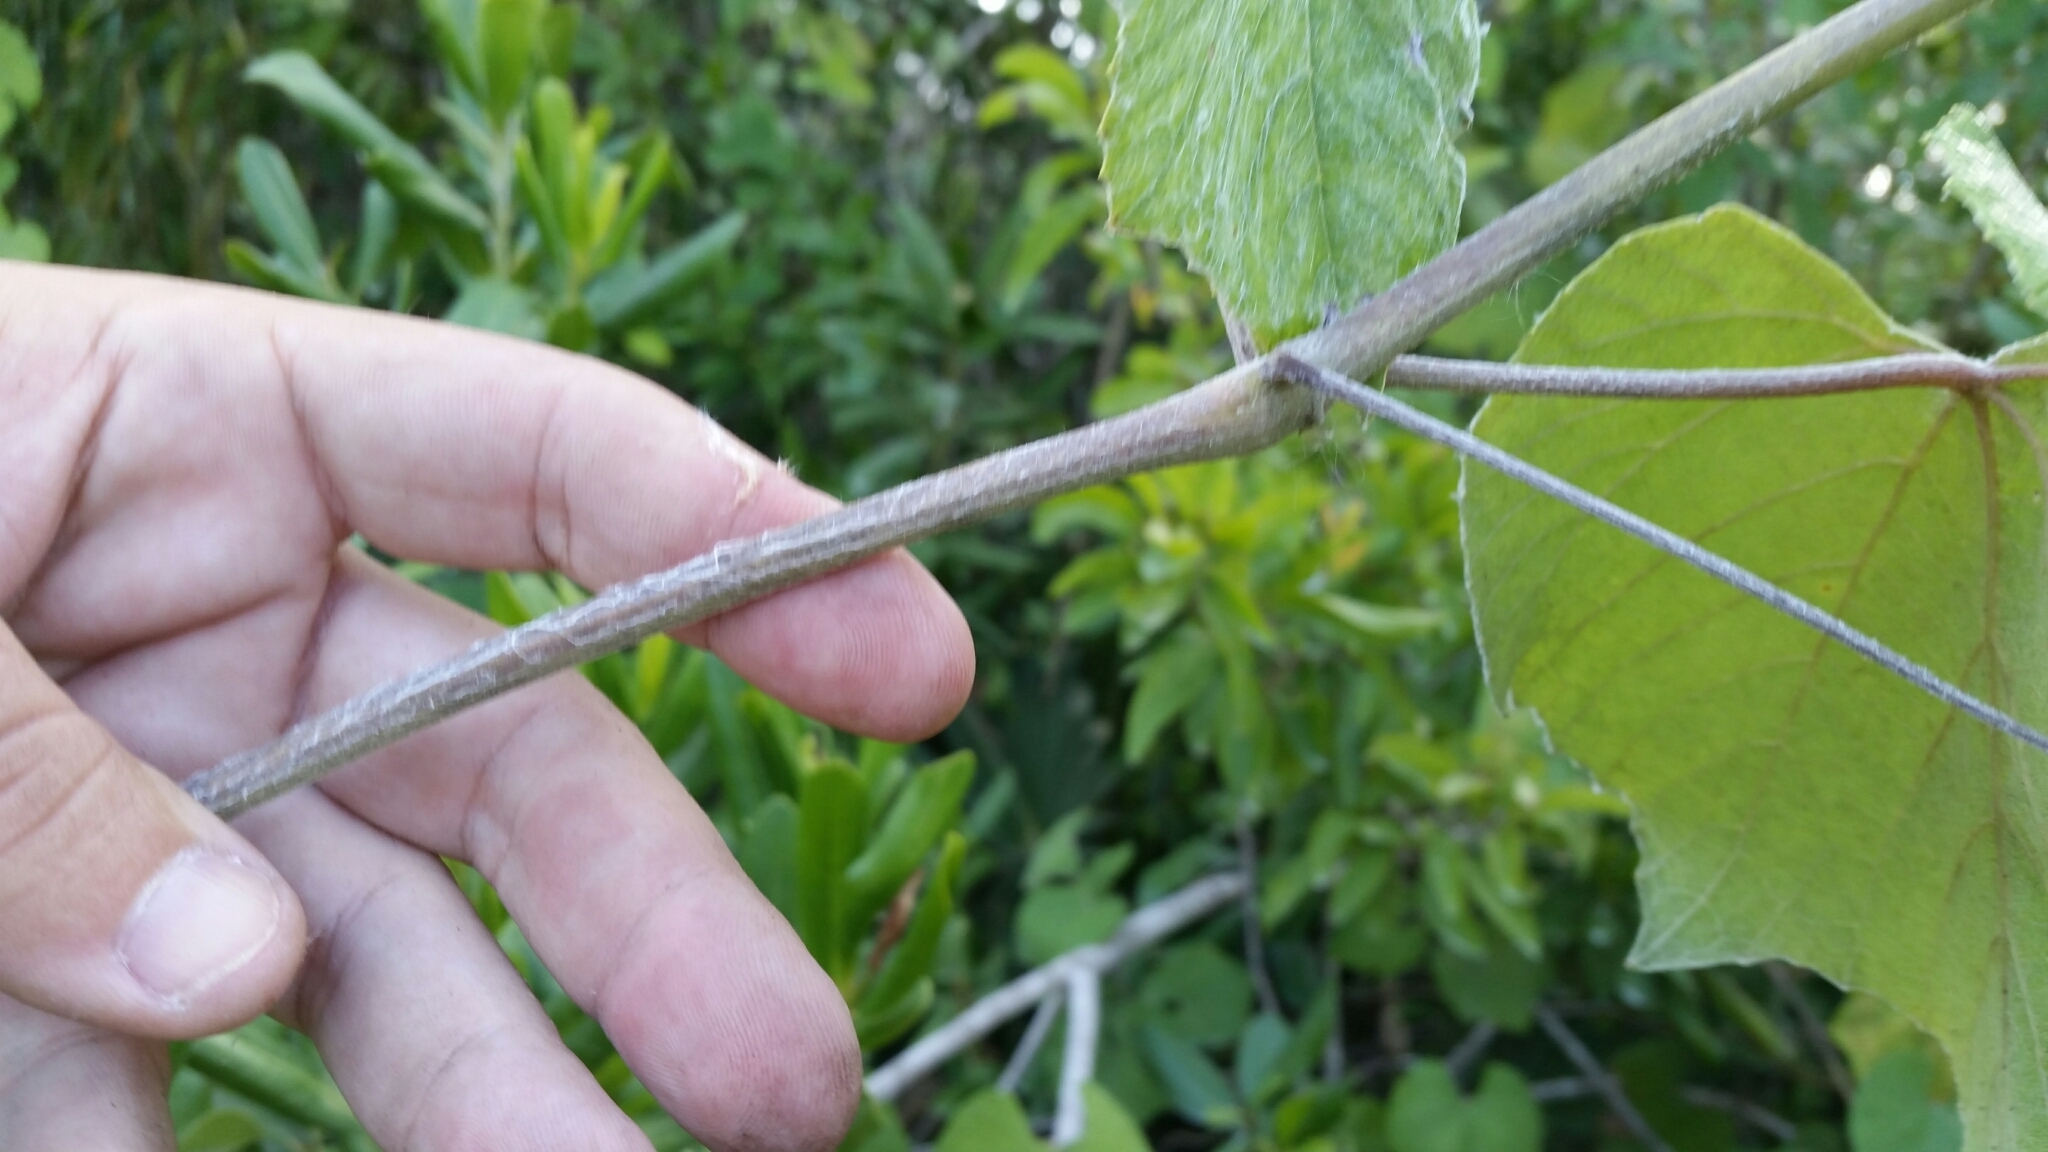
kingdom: Plantae
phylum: Tracheophyta
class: Magnoliopsida
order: Vitales
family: Vitaceae
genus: Vitis
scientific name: Vitis cinerea
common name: Ashy grape
